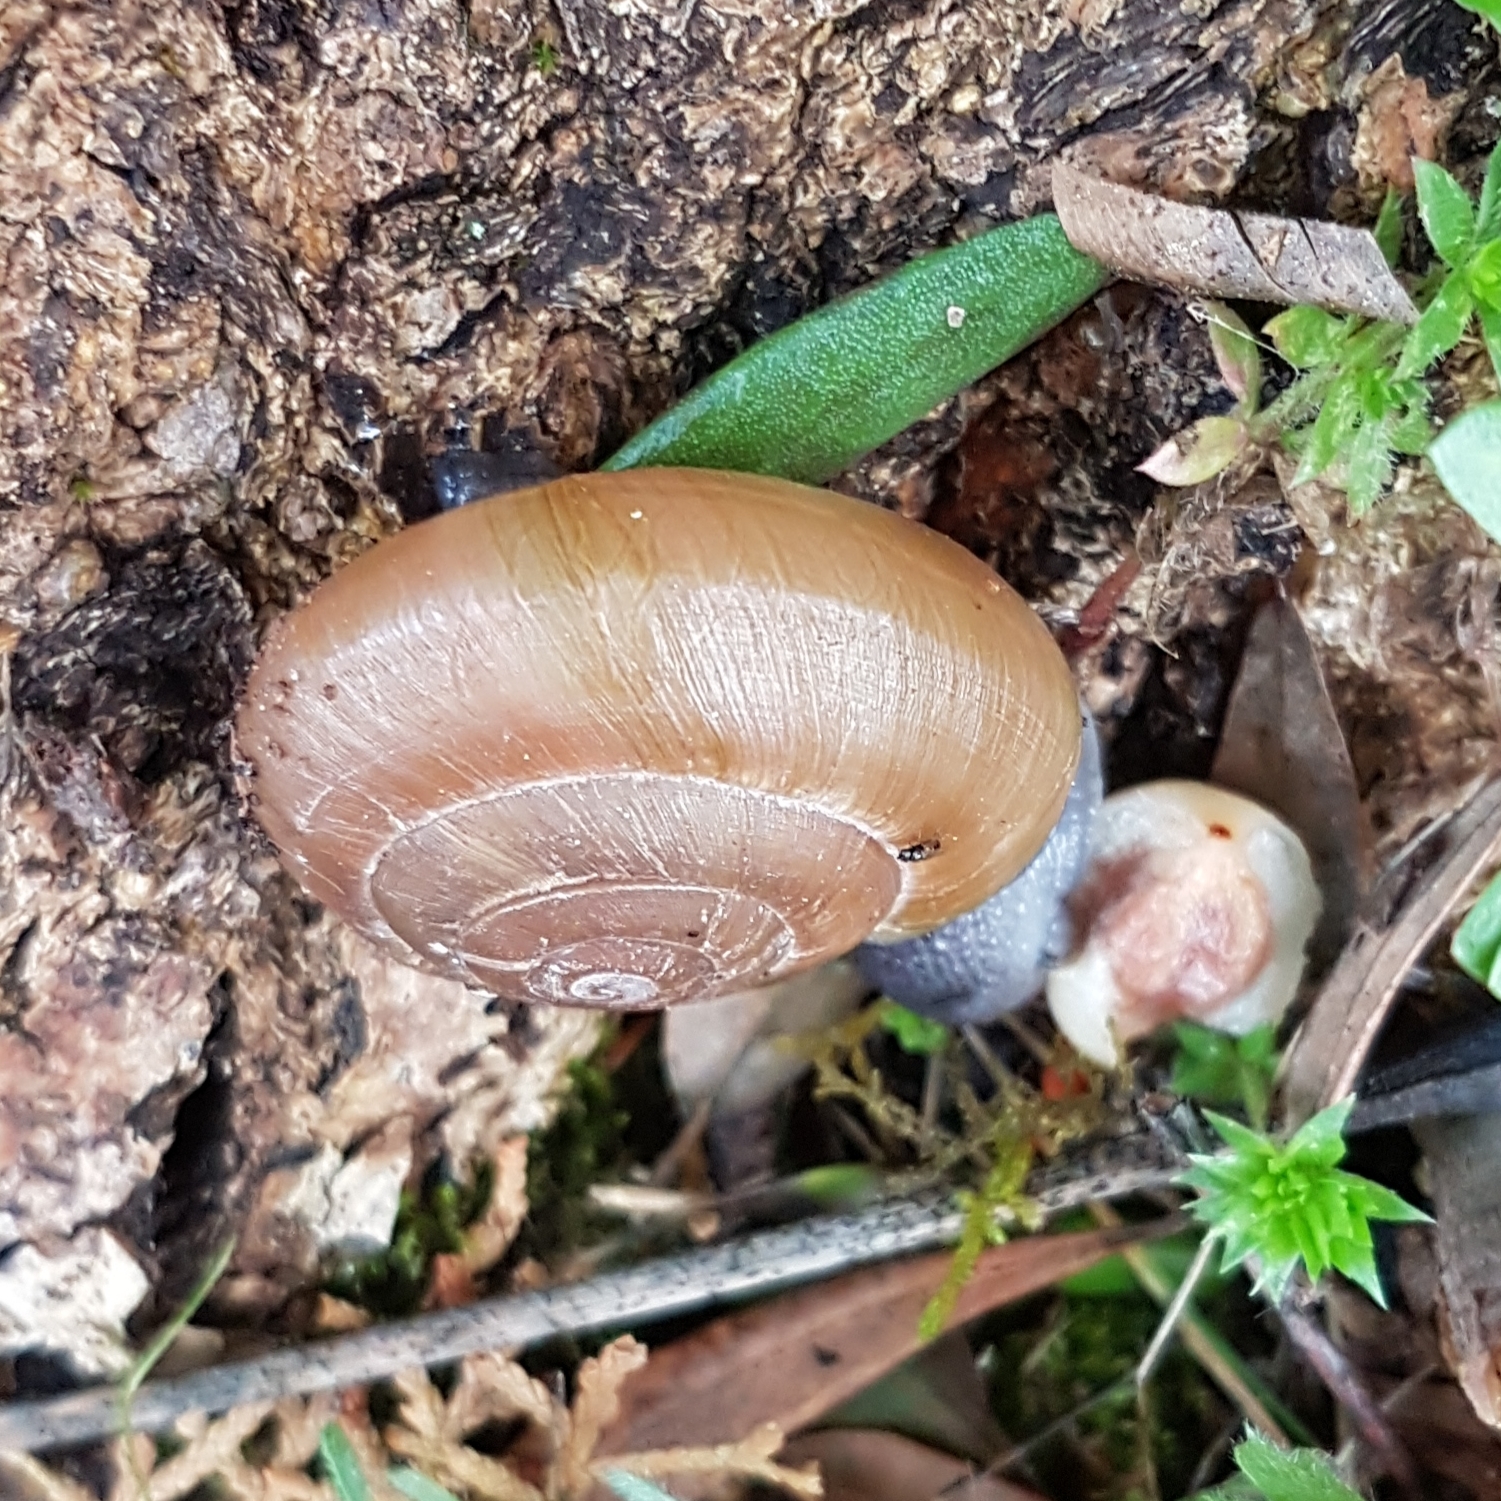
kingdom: Animalia
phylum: Mollusca
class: Gastropoda
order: Stylommatophora
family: Zonitidae
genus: Zonites
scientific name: Zonites algirus
